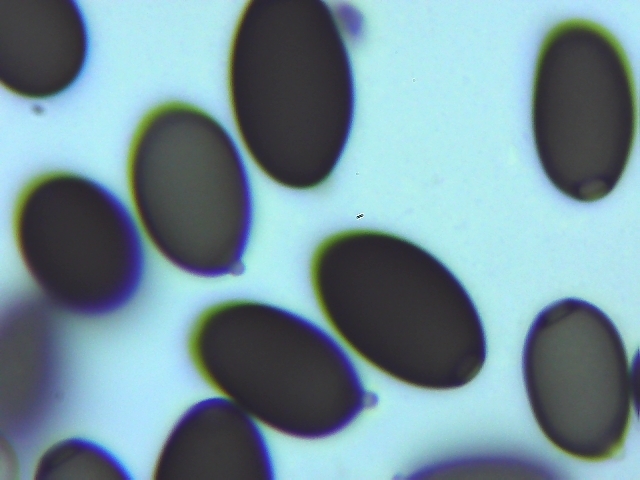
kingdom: Fungi
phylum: Basidiomycota
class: Agaricomycetes
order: Agaricales
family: Agaricaceae
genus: Coprinus
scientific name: Coprinus calyptratus
